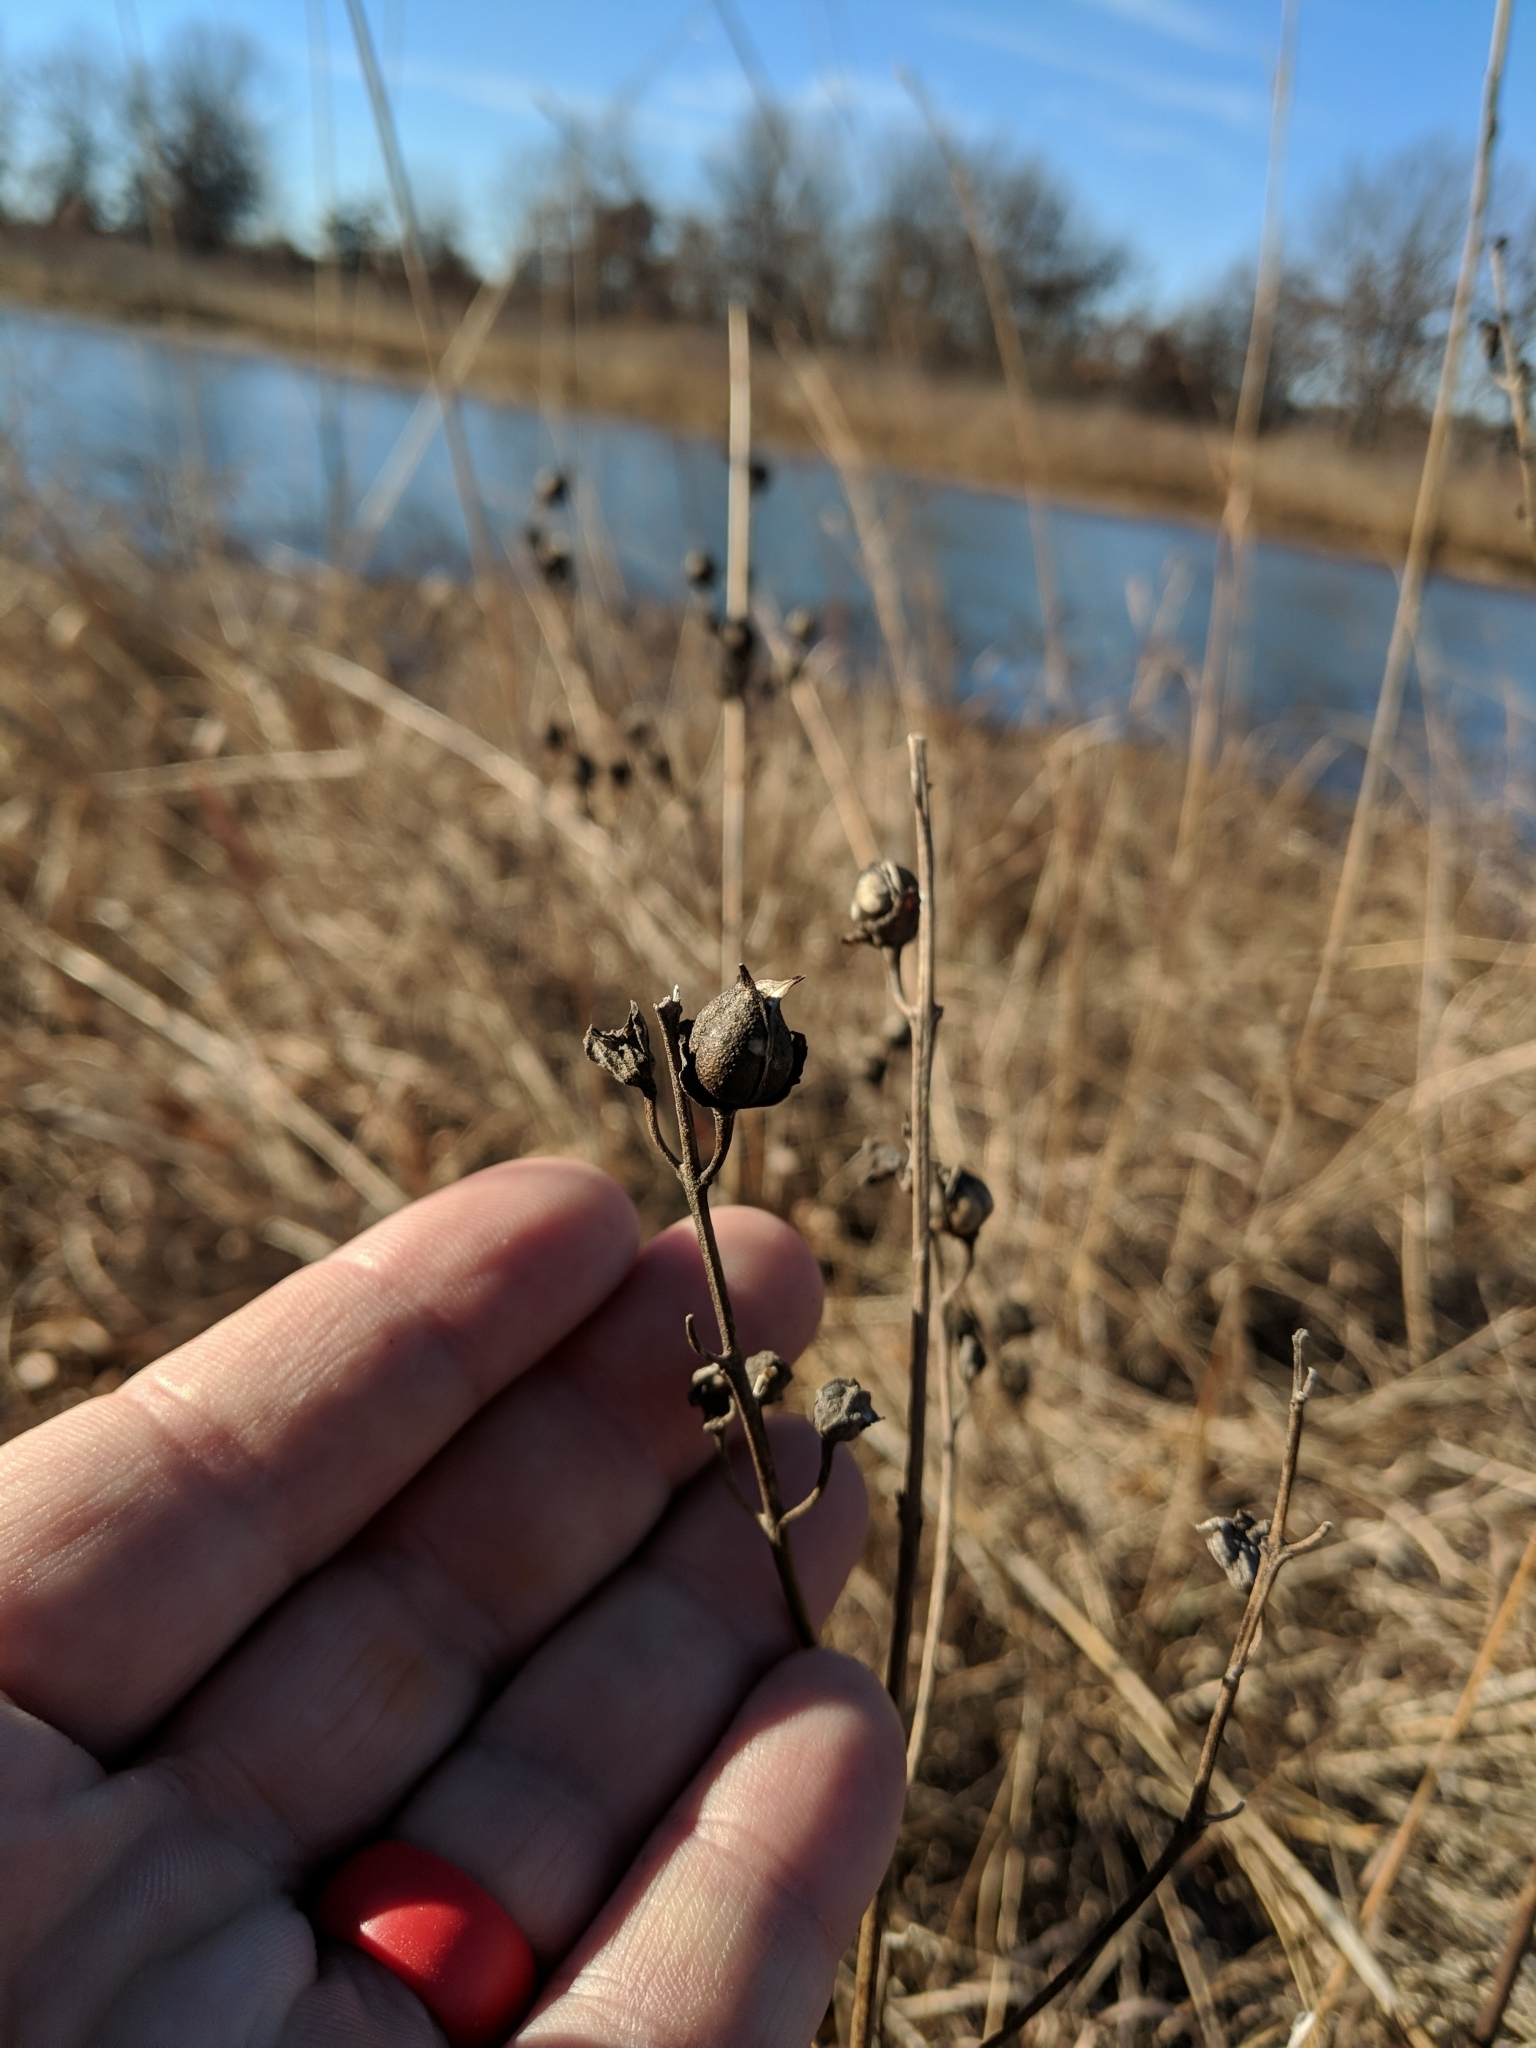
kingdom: Plantae
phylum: Tracheophyta
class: Magnoliopsida
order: Lamiales
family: Orobanchaceae
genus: Aureolaria
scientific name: Aureolaria grandiflora
